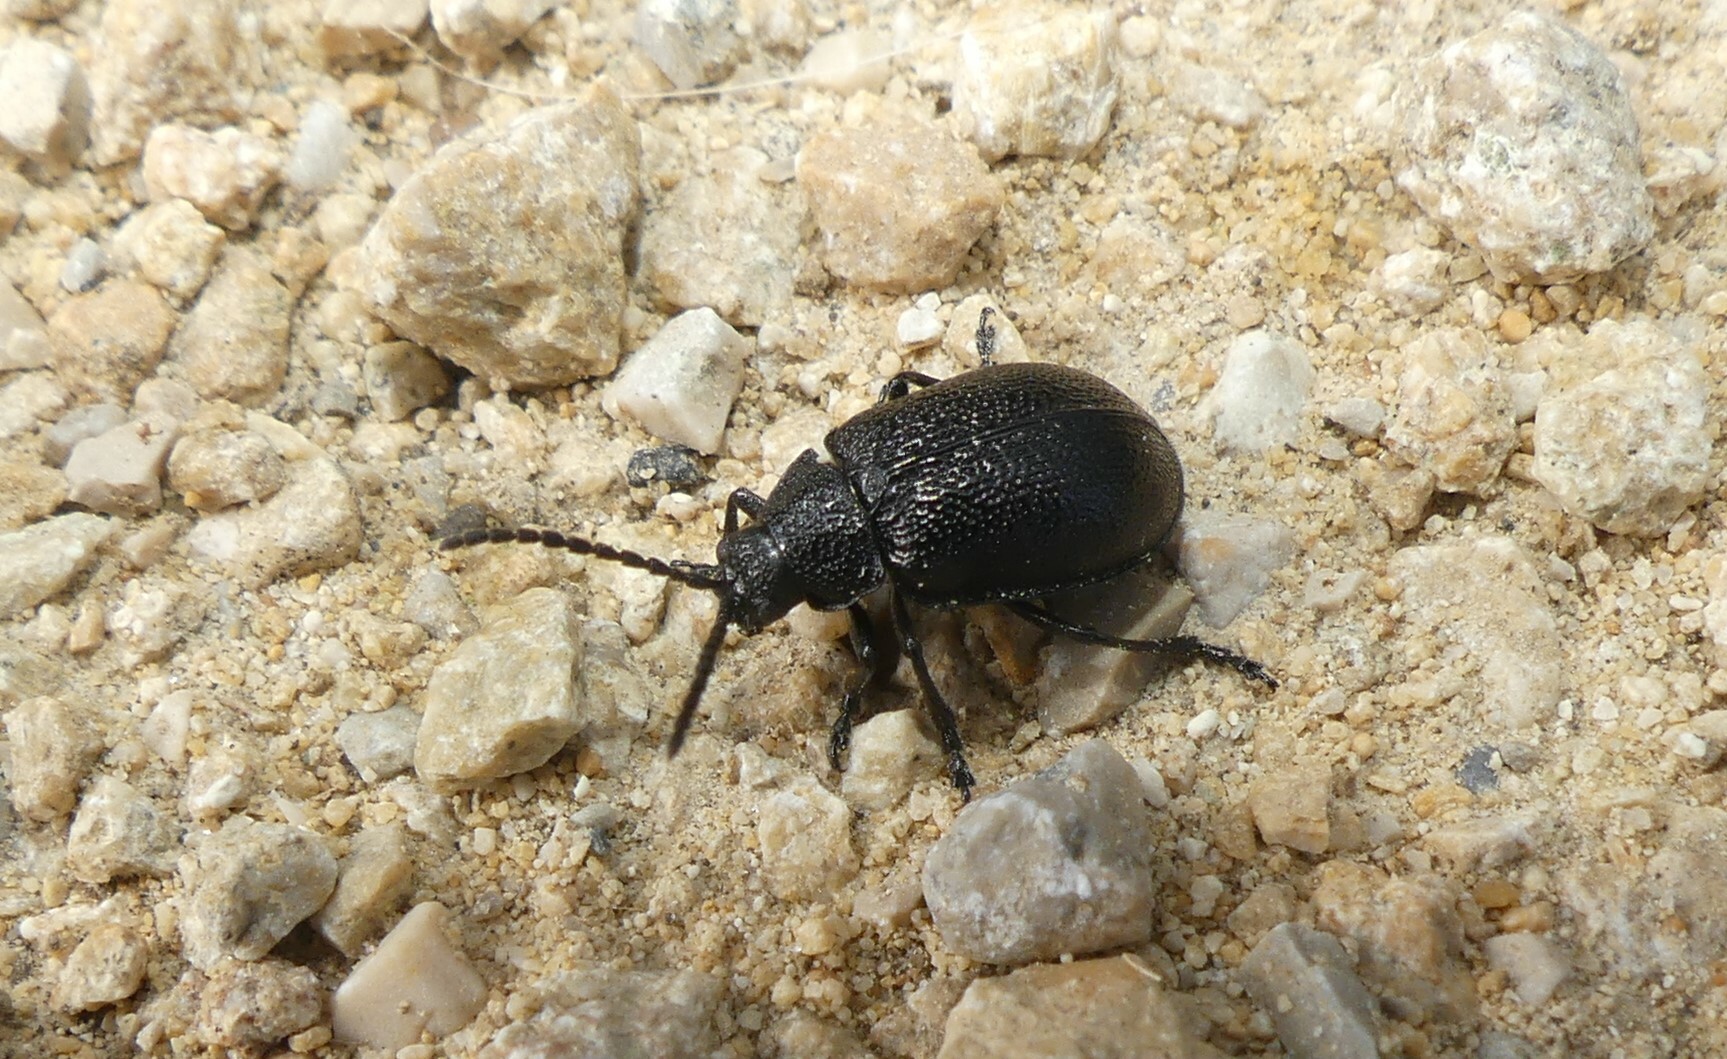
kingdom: Animalia
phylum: Arthropoda
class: Insecta
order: Coleoptera
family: Chrysomelidae
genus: Galeruca
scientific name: Galeruca tanaceti
